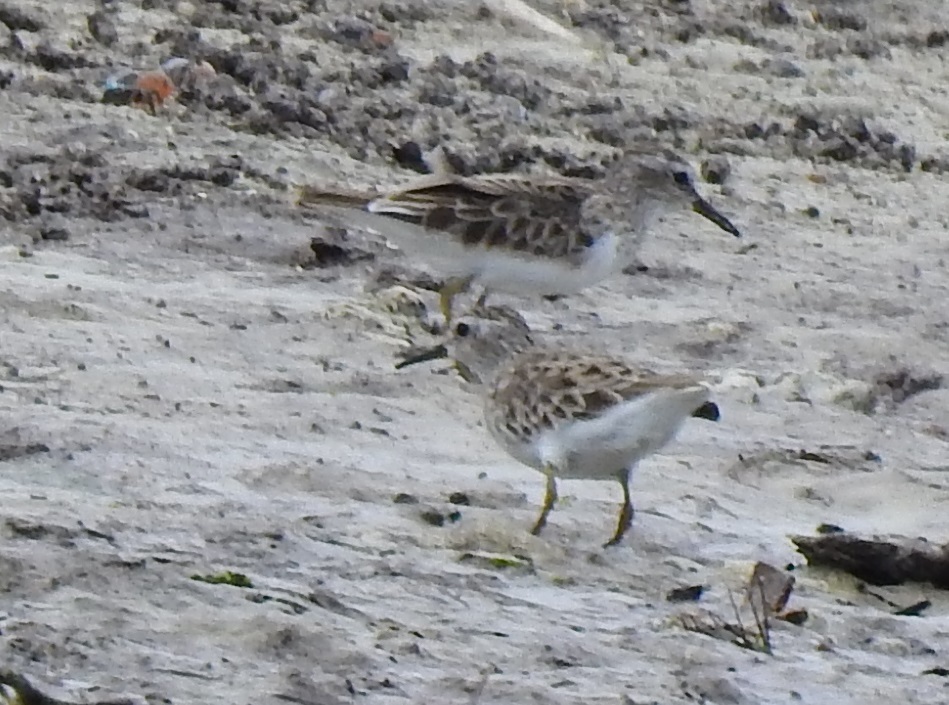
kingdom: Animalia
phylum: Chordata
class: Aves
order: Charadriiformes
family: Scolopacidae
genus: Calidris
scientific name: Calidris subminuta
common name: Long-toed stint
